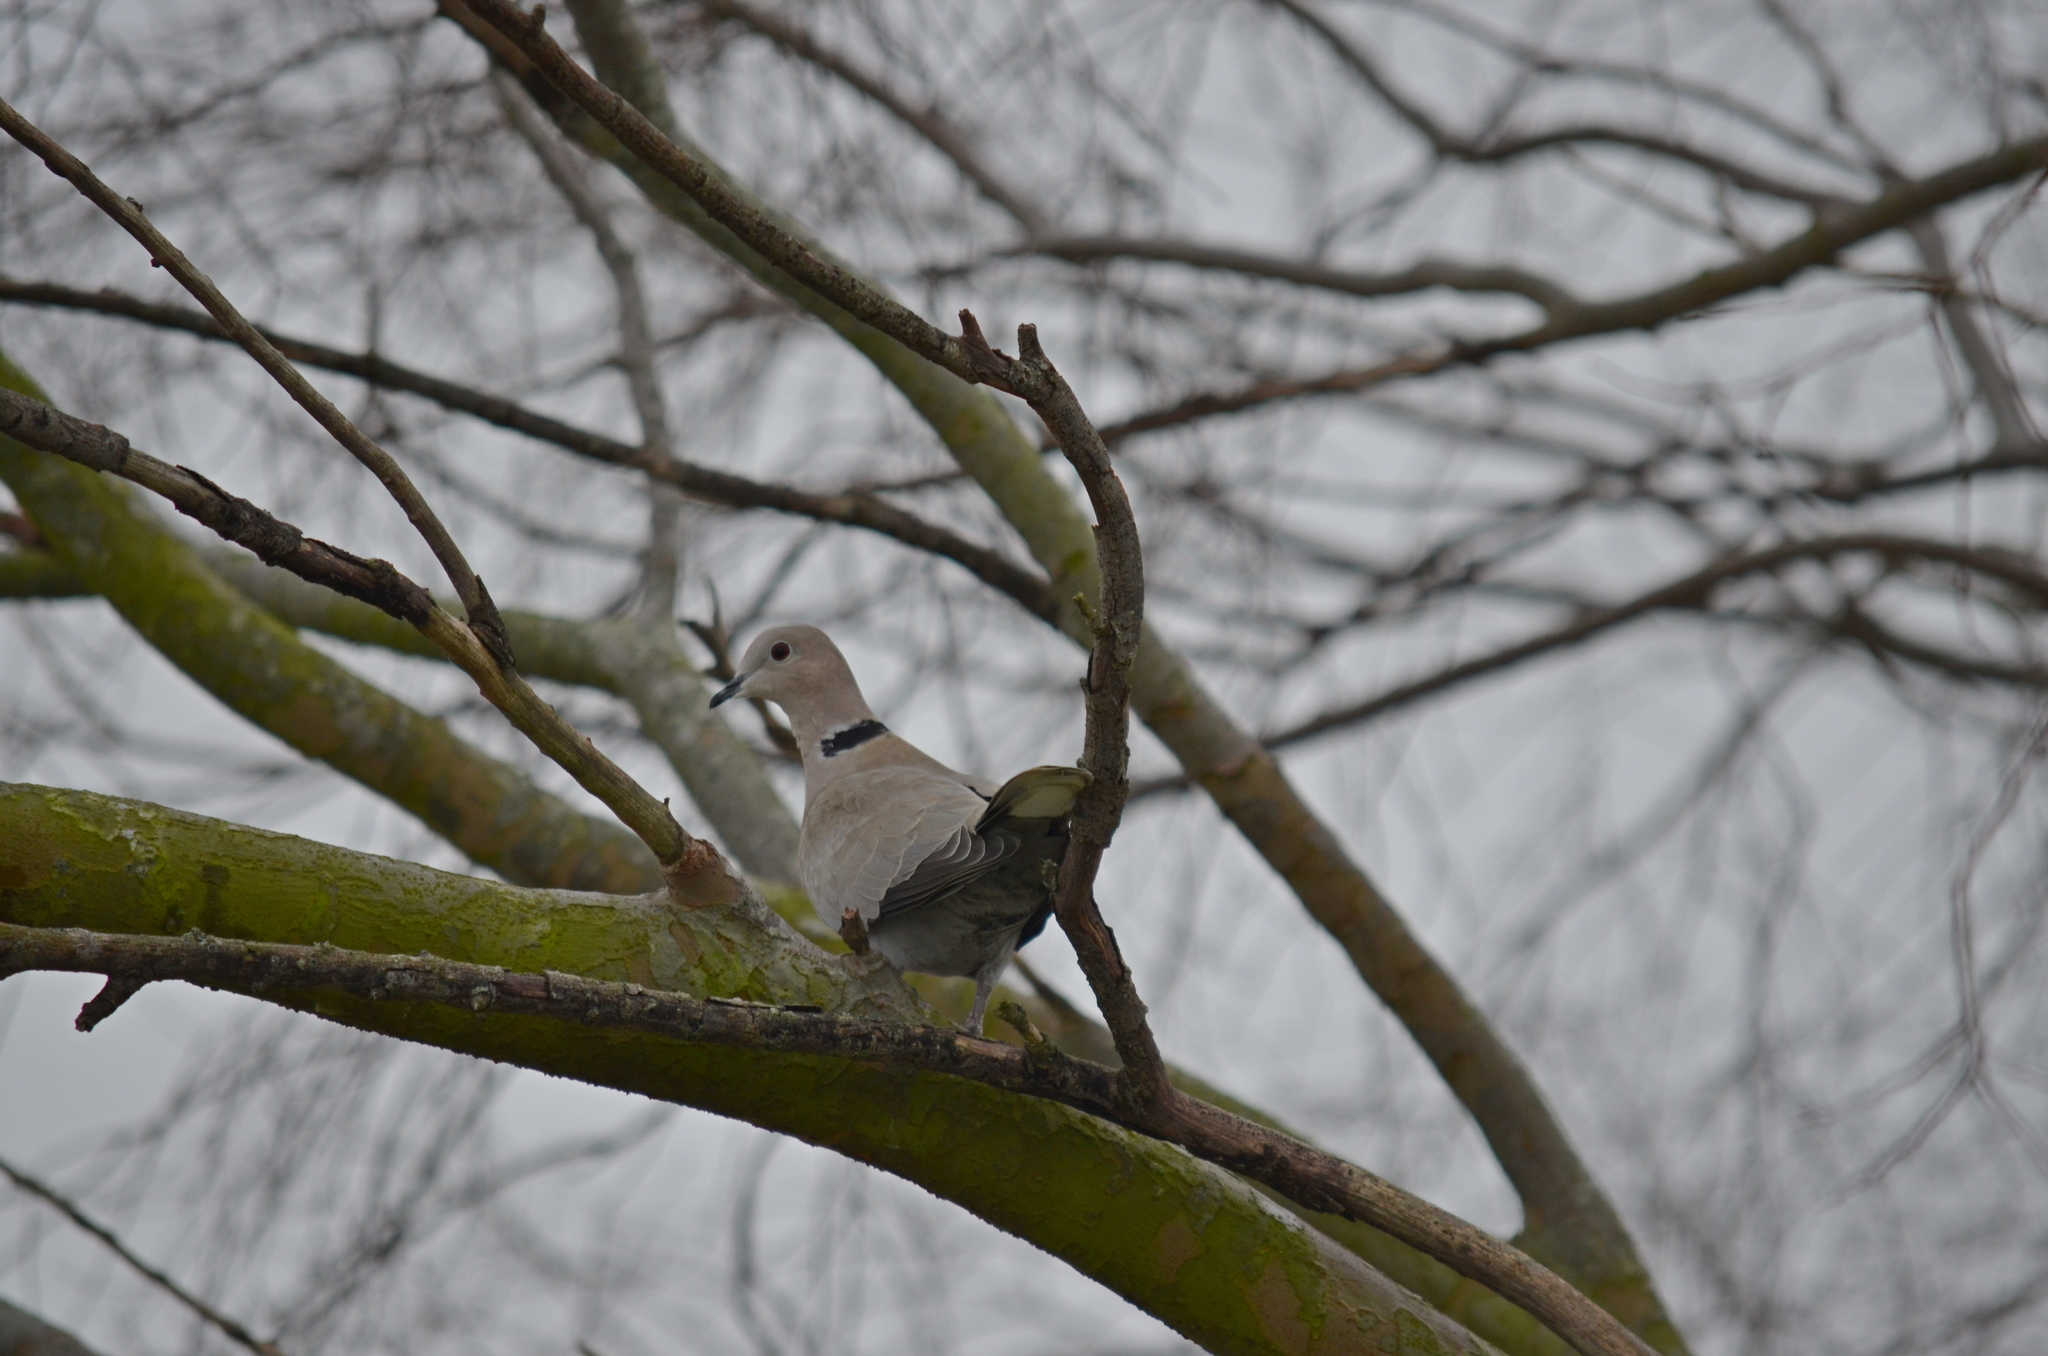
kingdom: Animalia
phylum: Chordata
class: Aves
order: Columbiformes
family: Columbidae
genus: Streptopelia
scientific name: Streptopelia decaocto
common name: Eurasian collared dove
